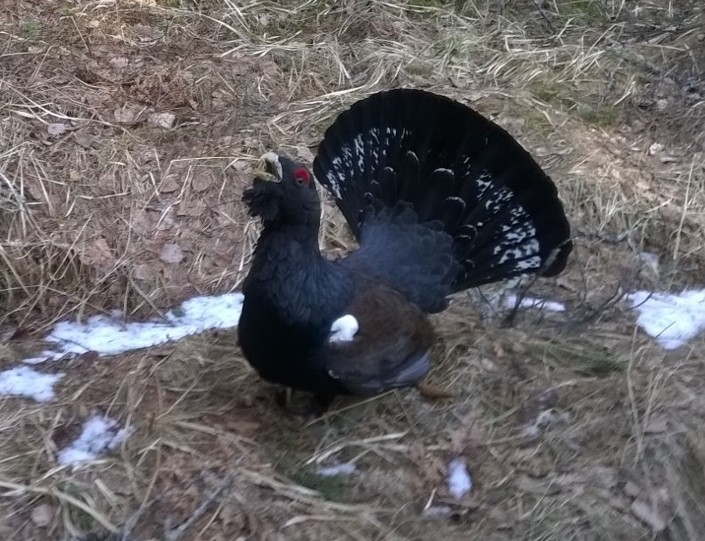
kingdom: Animalia
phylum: Chordata
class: Aves
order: Galliformes
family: Phasianidae
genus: Tetrao
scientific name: Tetrao urogallus
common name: Western capercaillie
